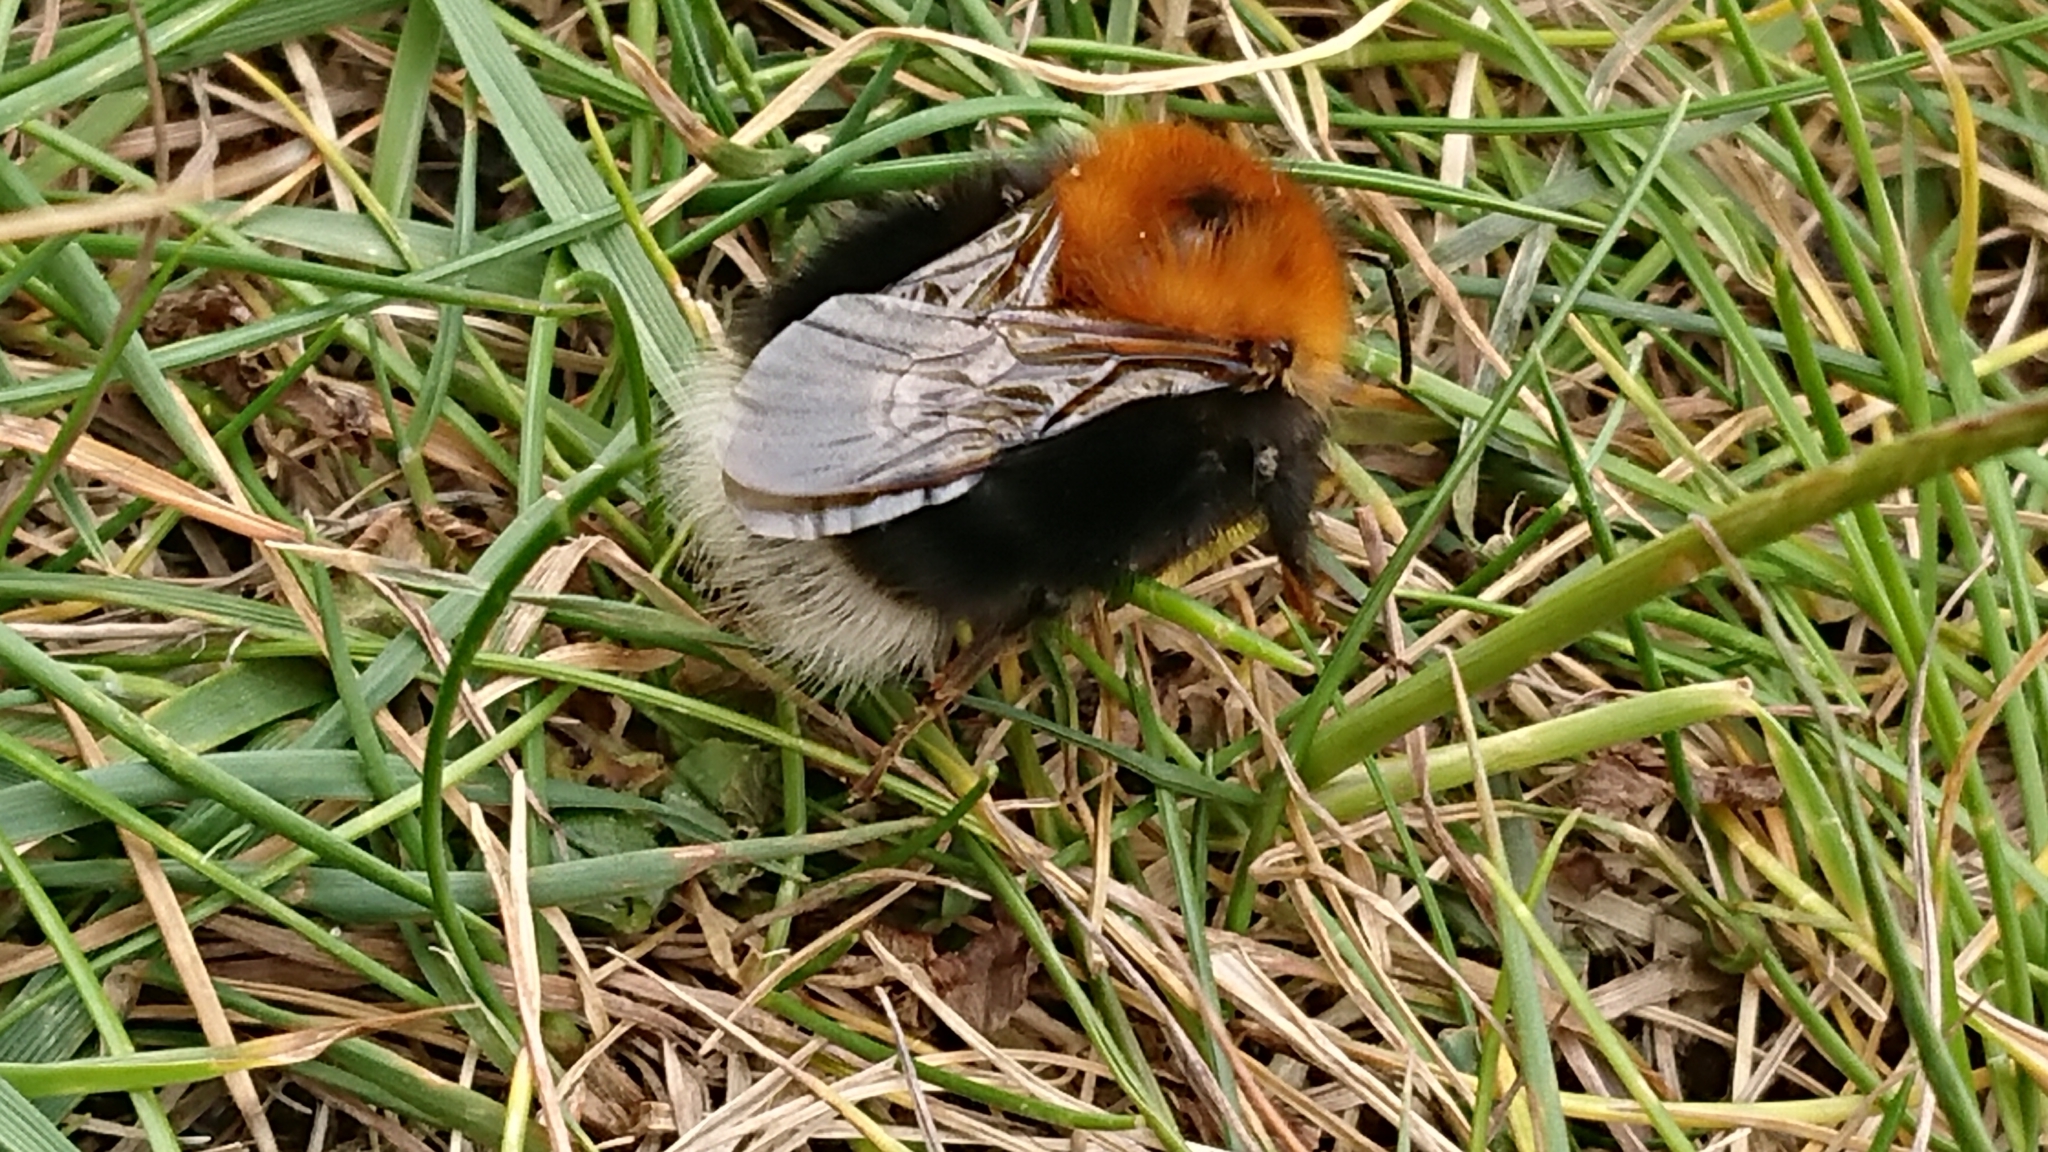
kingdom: Animalia
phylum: Arthropoda
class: Insecta
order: Hymenoptera
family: Apidae
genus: Bombus
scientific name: Bombus hypnorum
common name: New garden bumblebee
